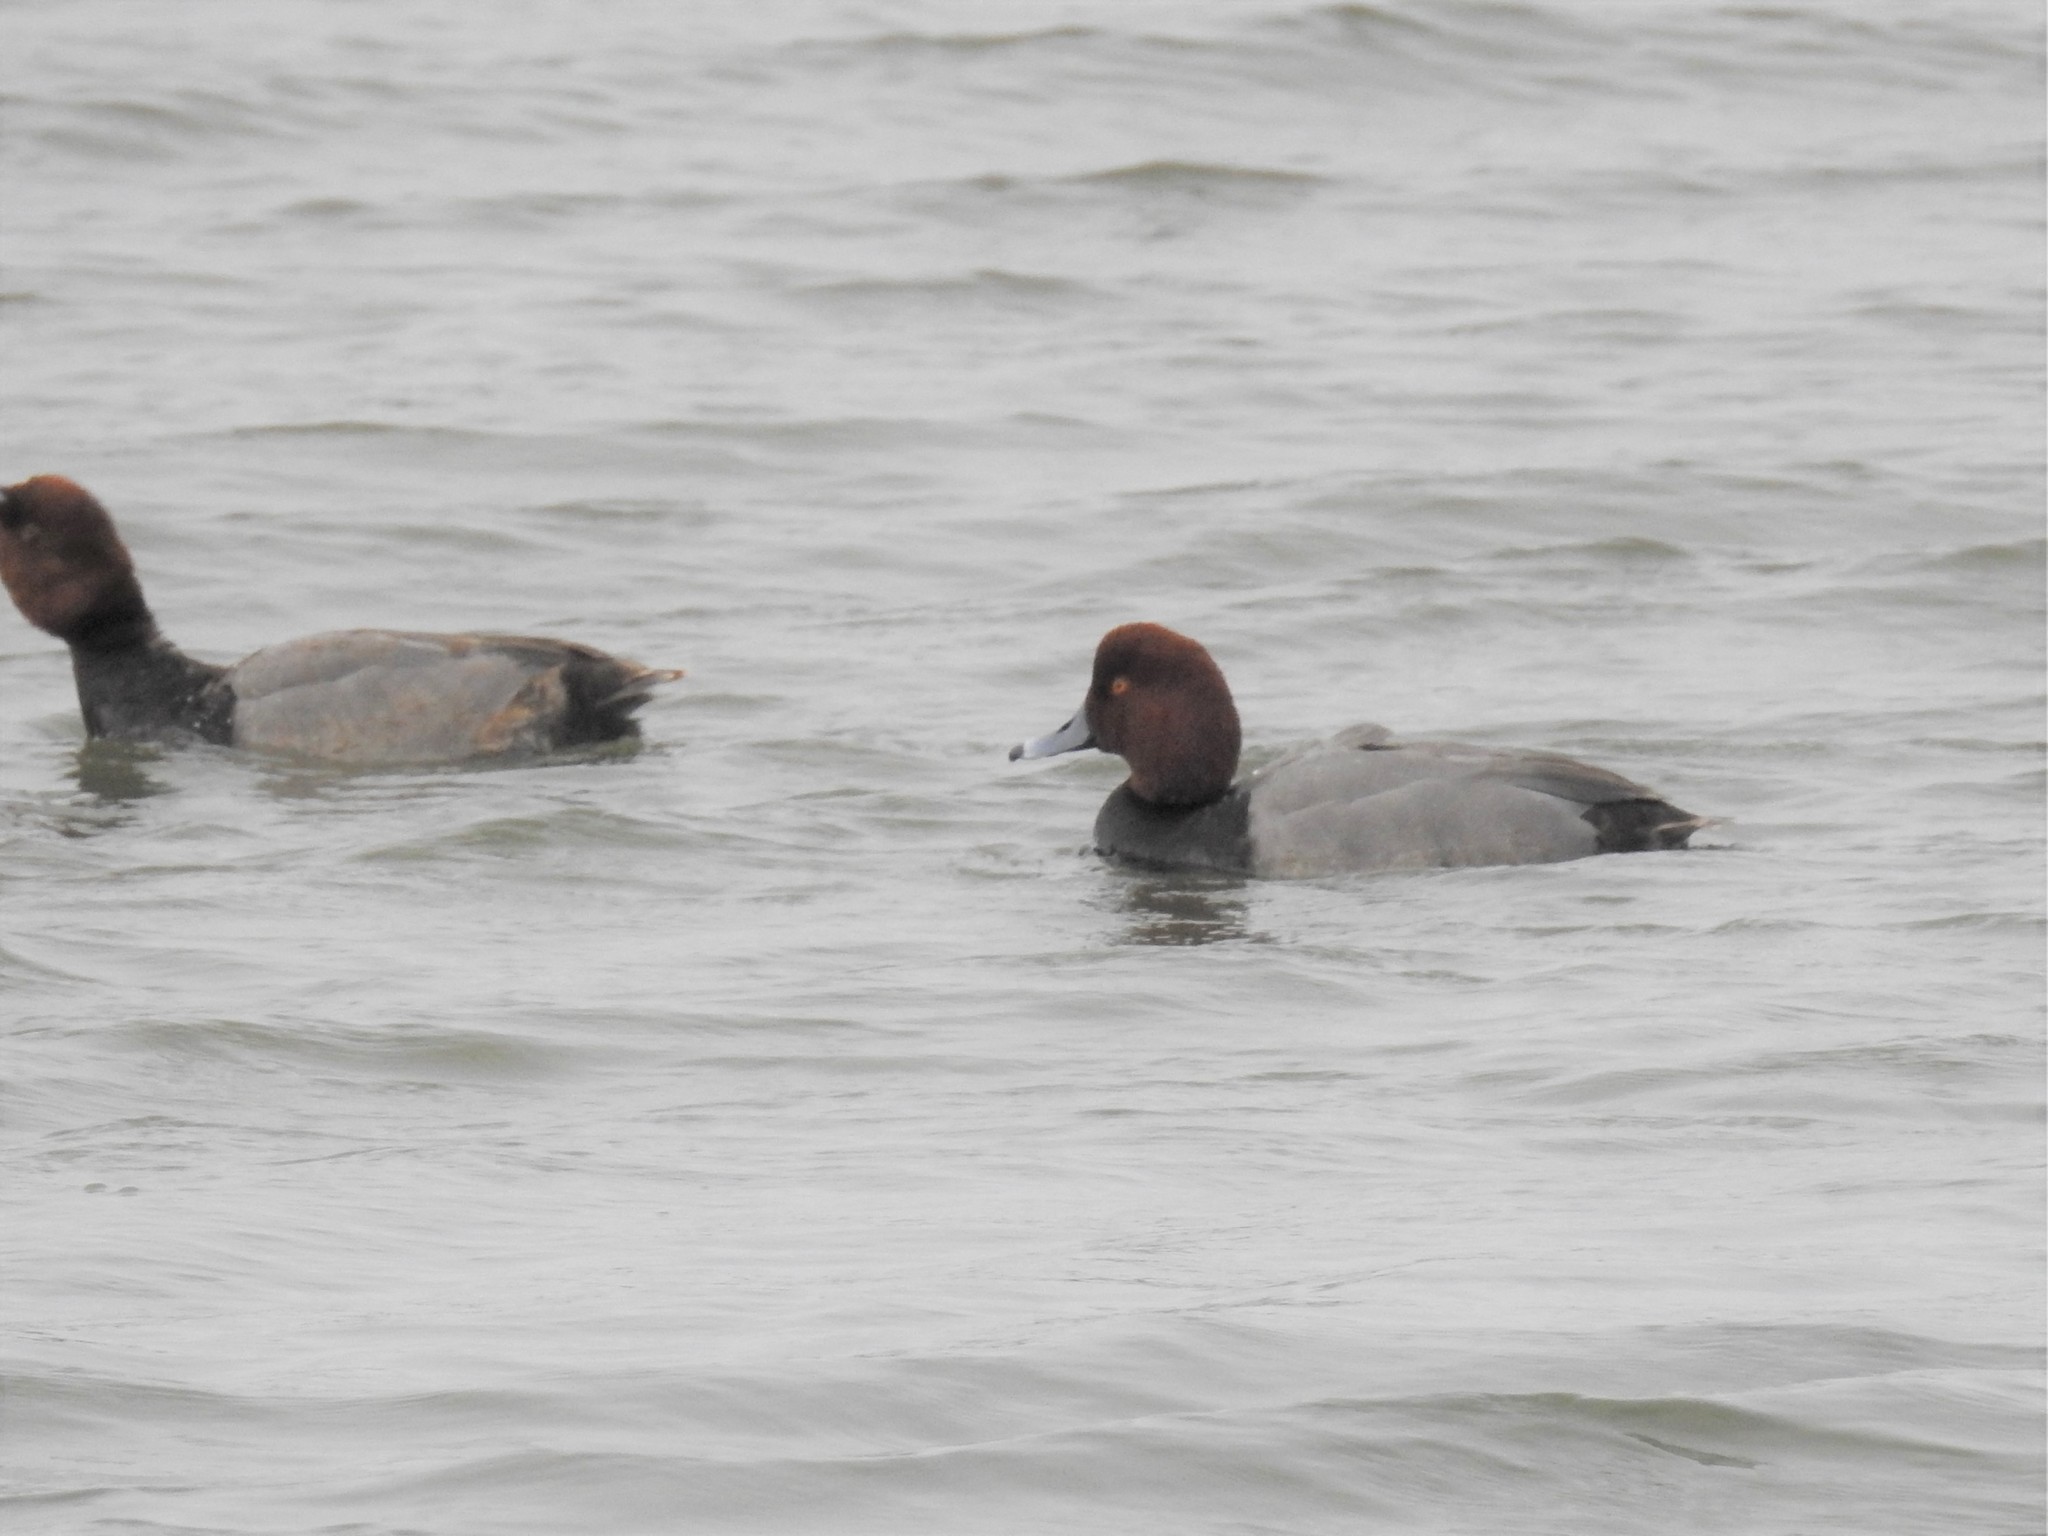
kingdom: Animalia
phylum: Chordata
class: Aves
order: Anseriformes
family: Anatidae
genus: Aythya
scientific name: Aythya americana
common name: Redhead
